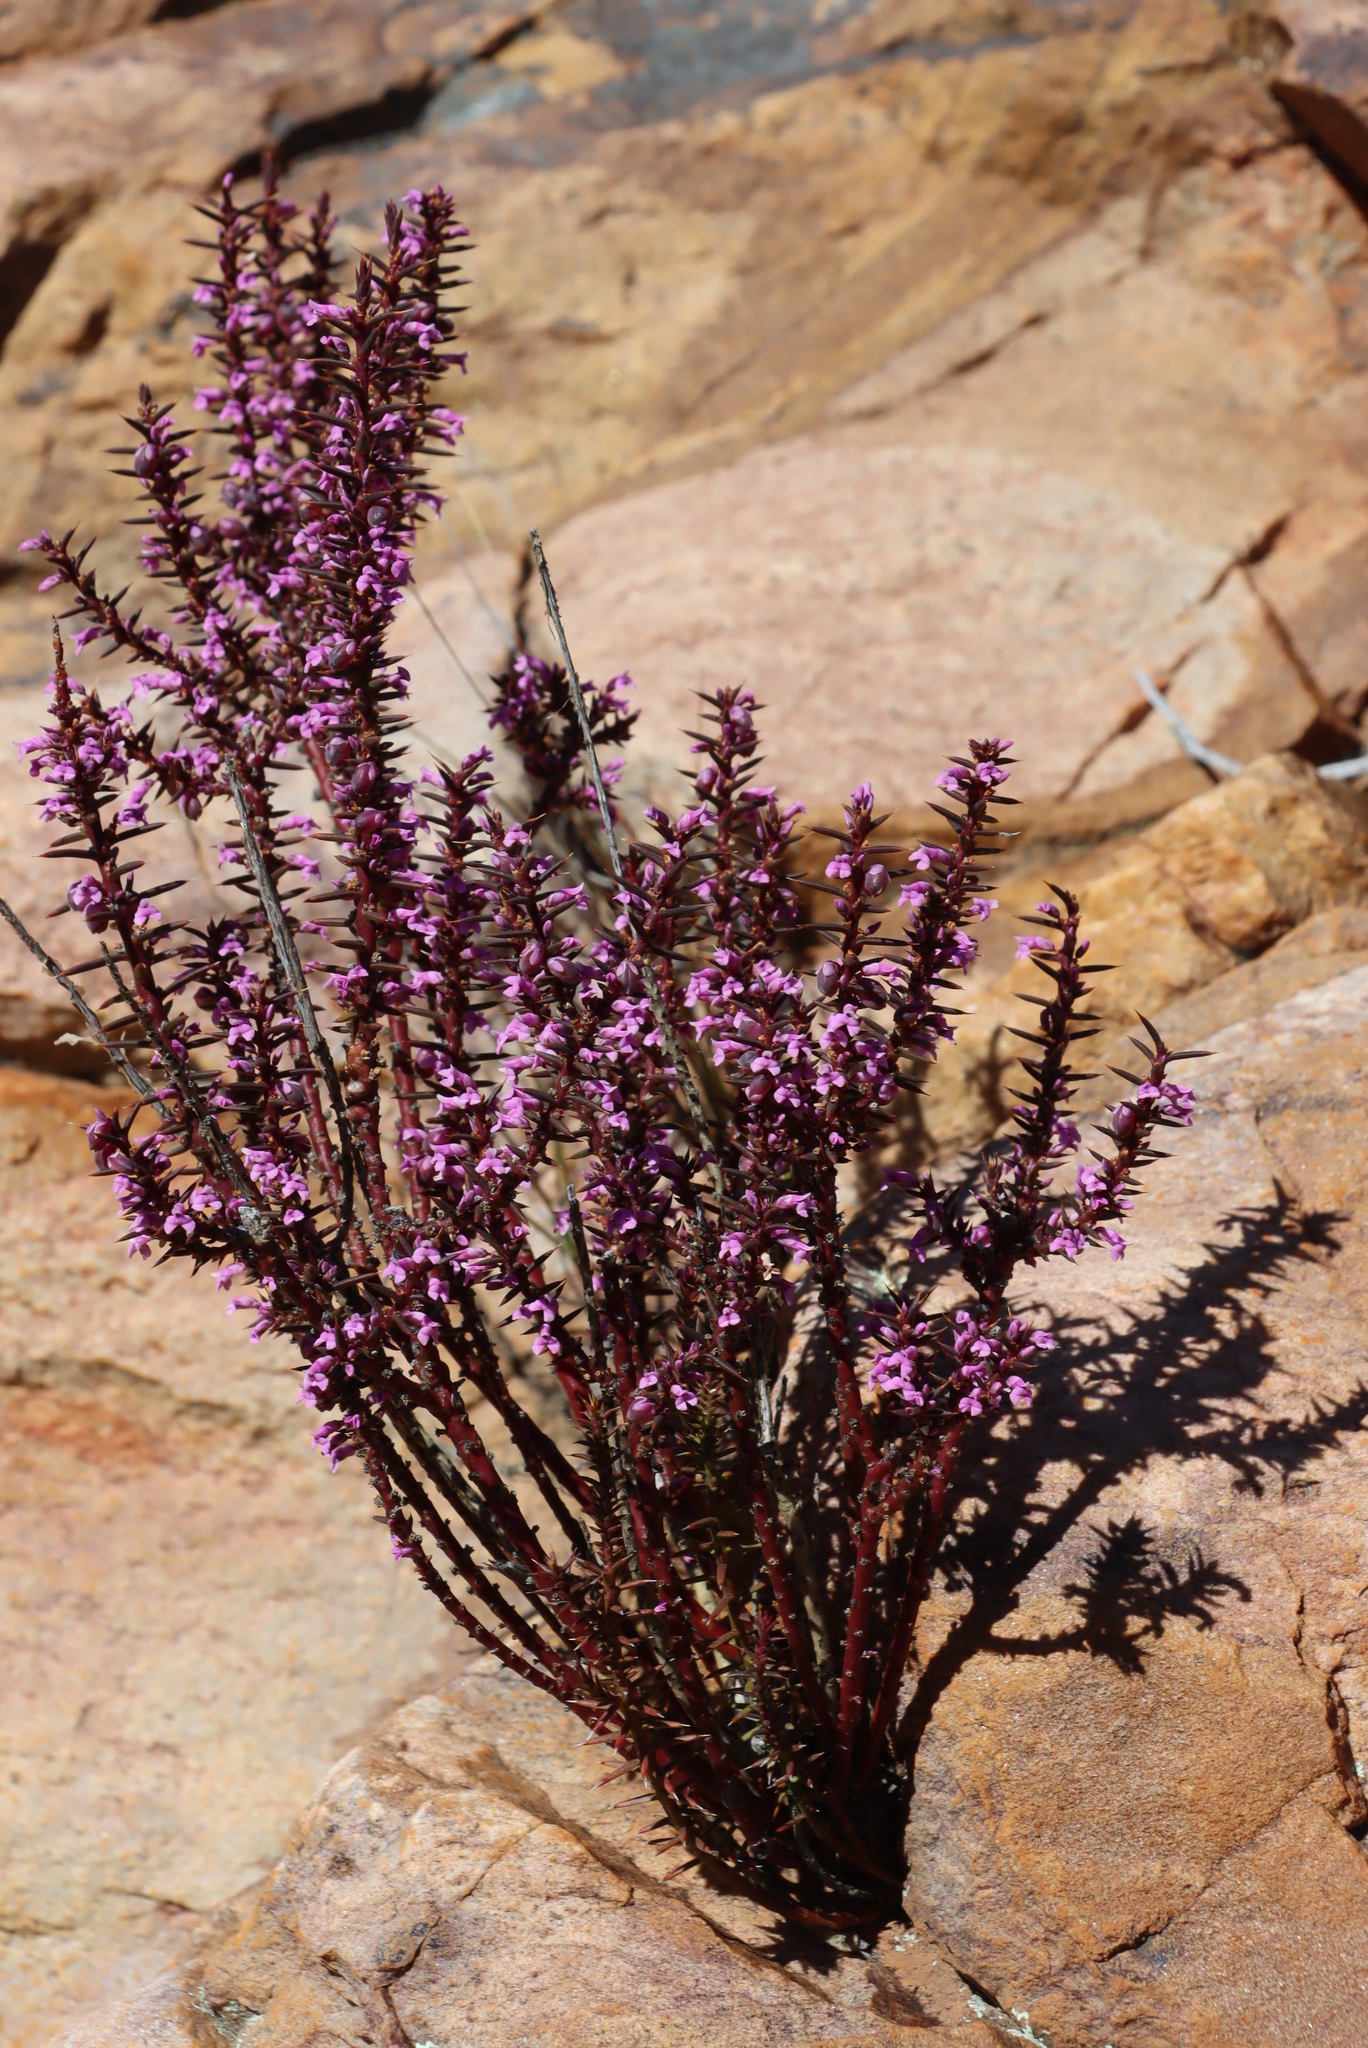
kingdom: Plantae
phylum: Tracheophyta
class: Magnoliopsida
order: Fabales
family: Polygalaceae
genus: Muraltia
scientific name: Muraltia juniperifolia
